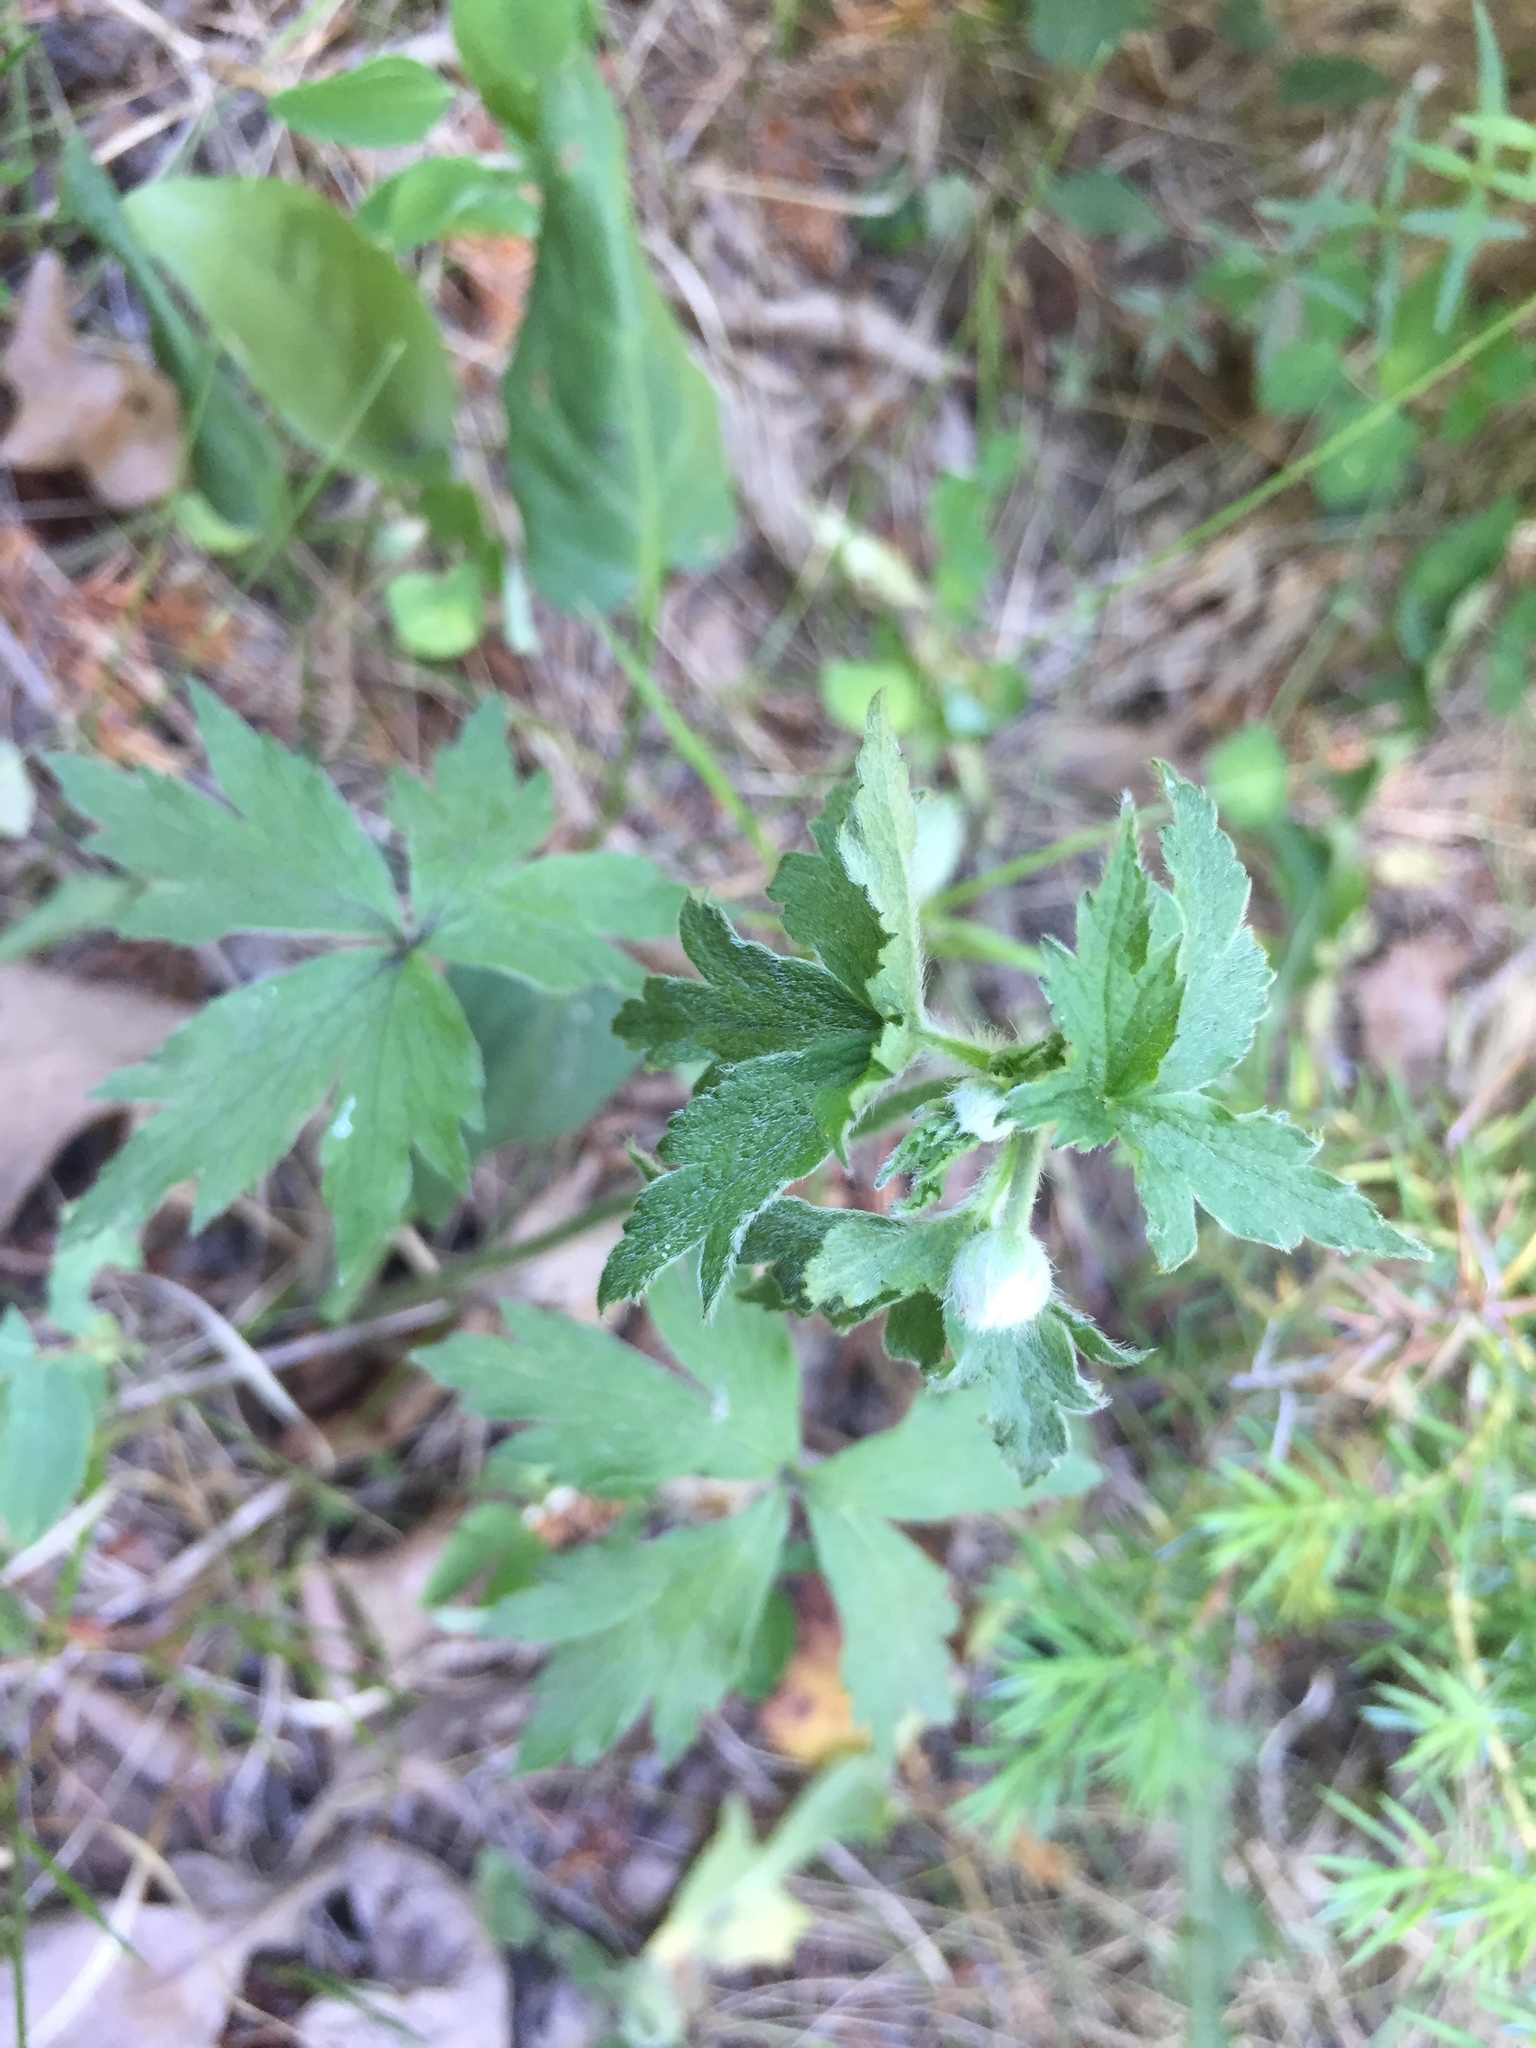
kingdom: Plantae
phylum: Tracheophyta
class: Magnoliopsida
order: Ranunculales
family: Ranunculaceae
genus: Anemone
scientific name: Anemone virginiana
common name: Tall anemone
